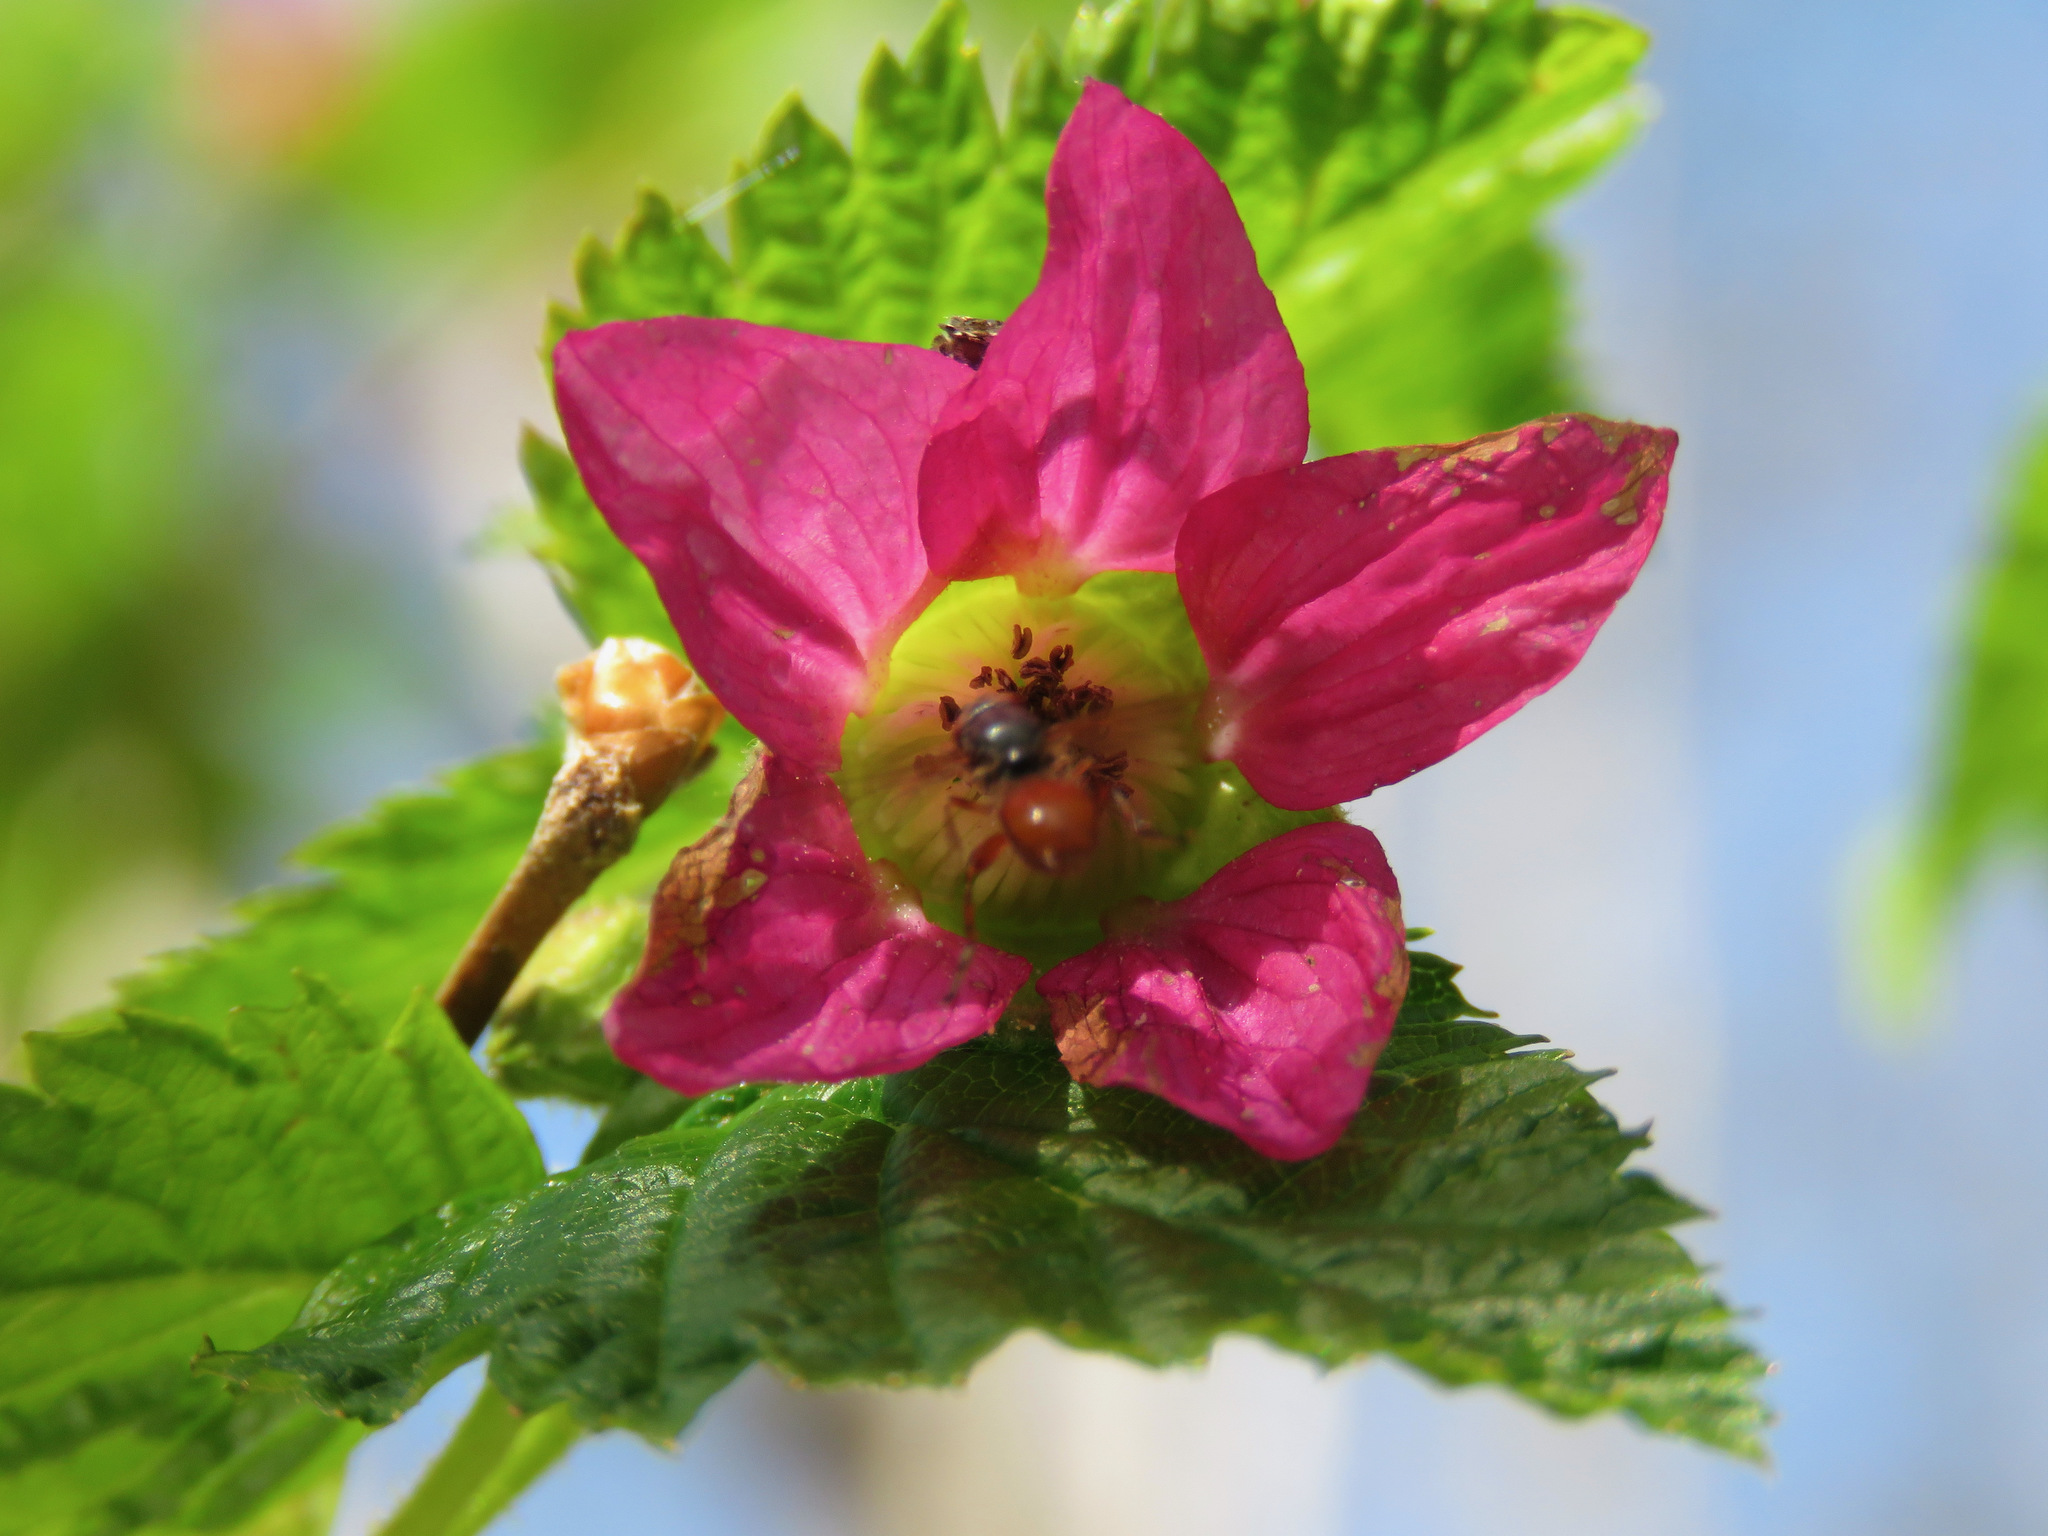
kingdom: Plantae
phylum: Tracheophyta
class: Magnoliopsida
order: Rosales
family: Rosaceae
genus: Rubus
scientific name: Rubus spectabilis
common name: Salmonberry
